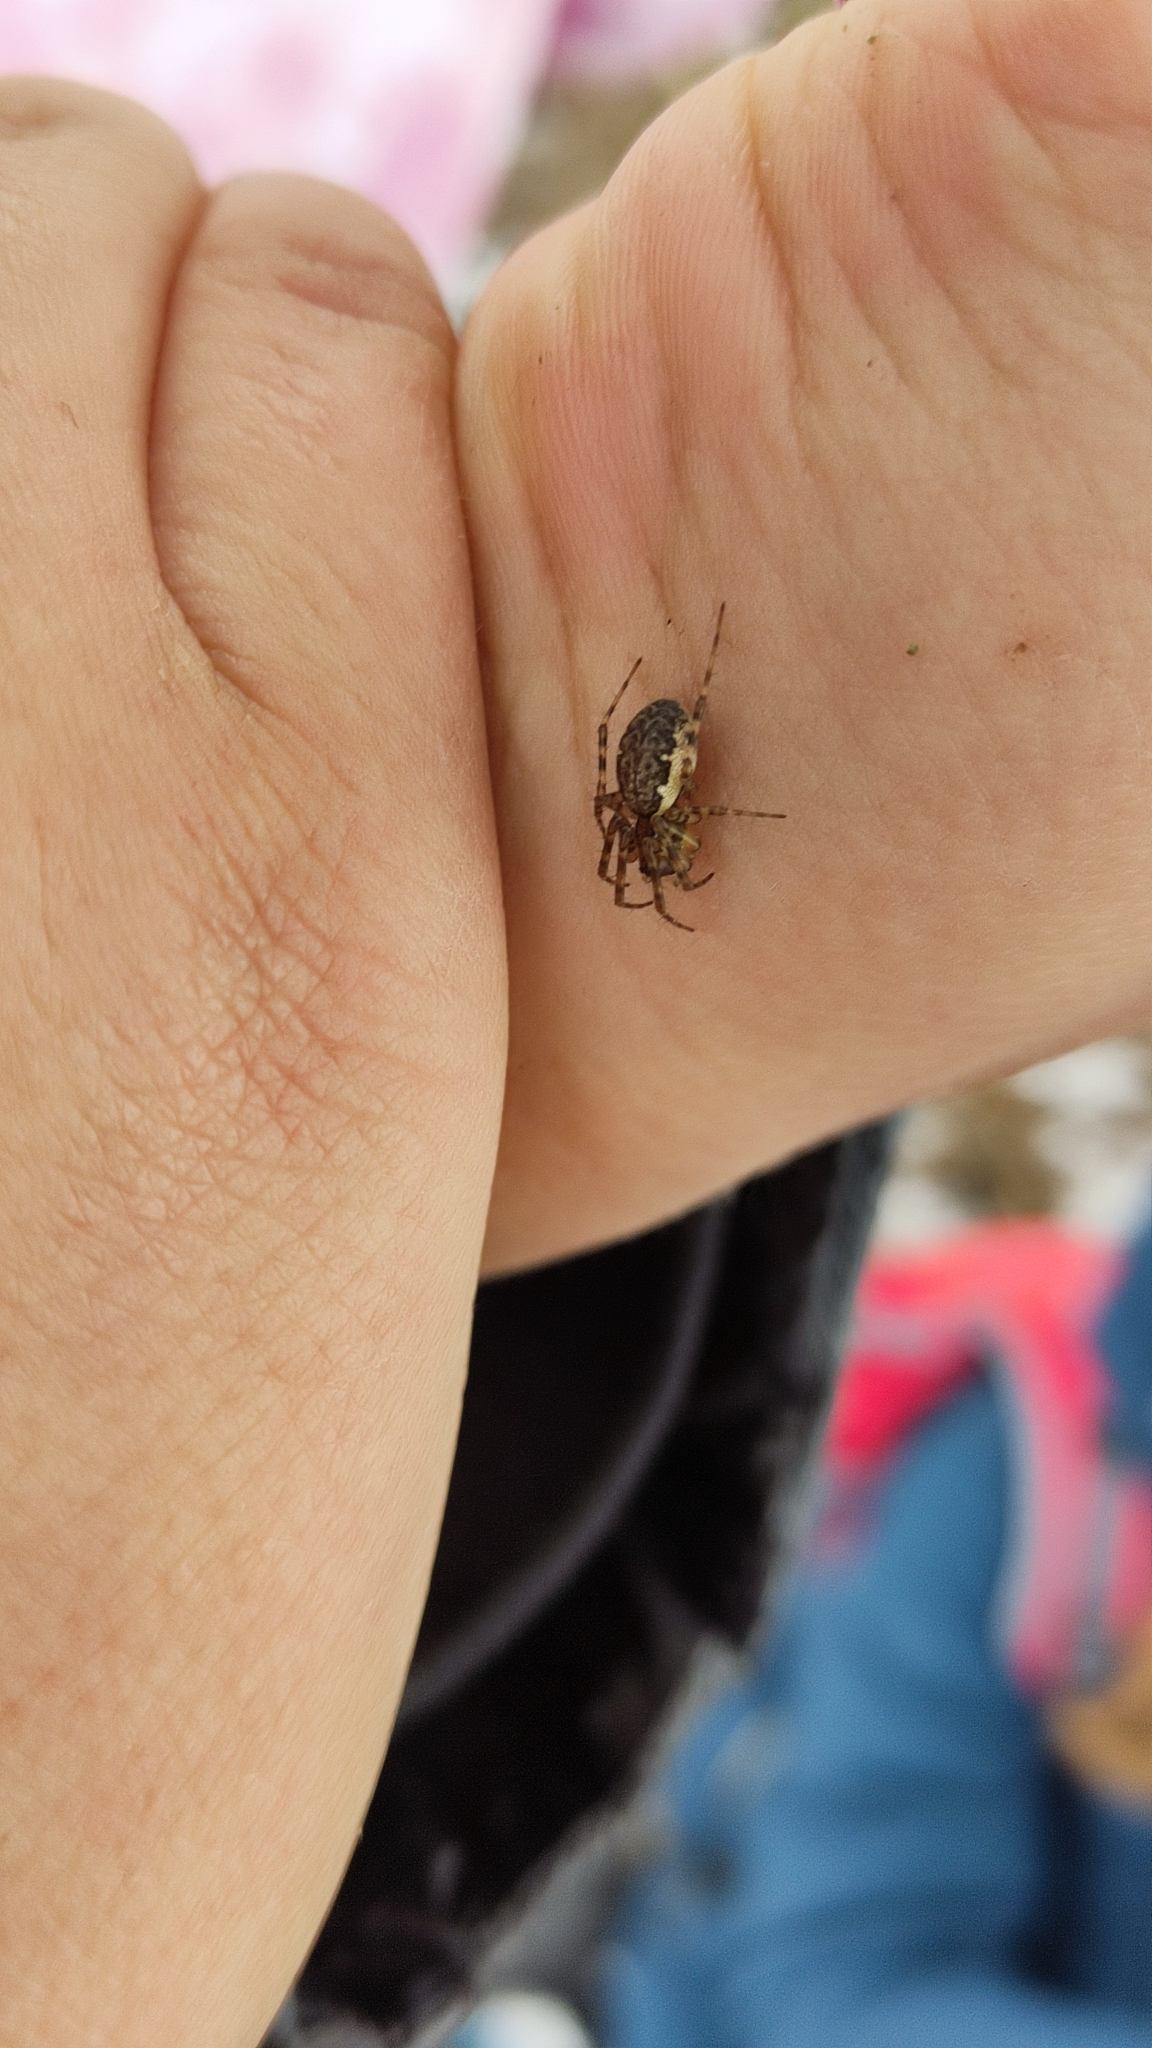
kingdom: Animalia
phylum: Arthropoda
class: Arachnida
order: Araneae
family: Linyphiidae
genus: Neriene
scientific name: Neriene montana
